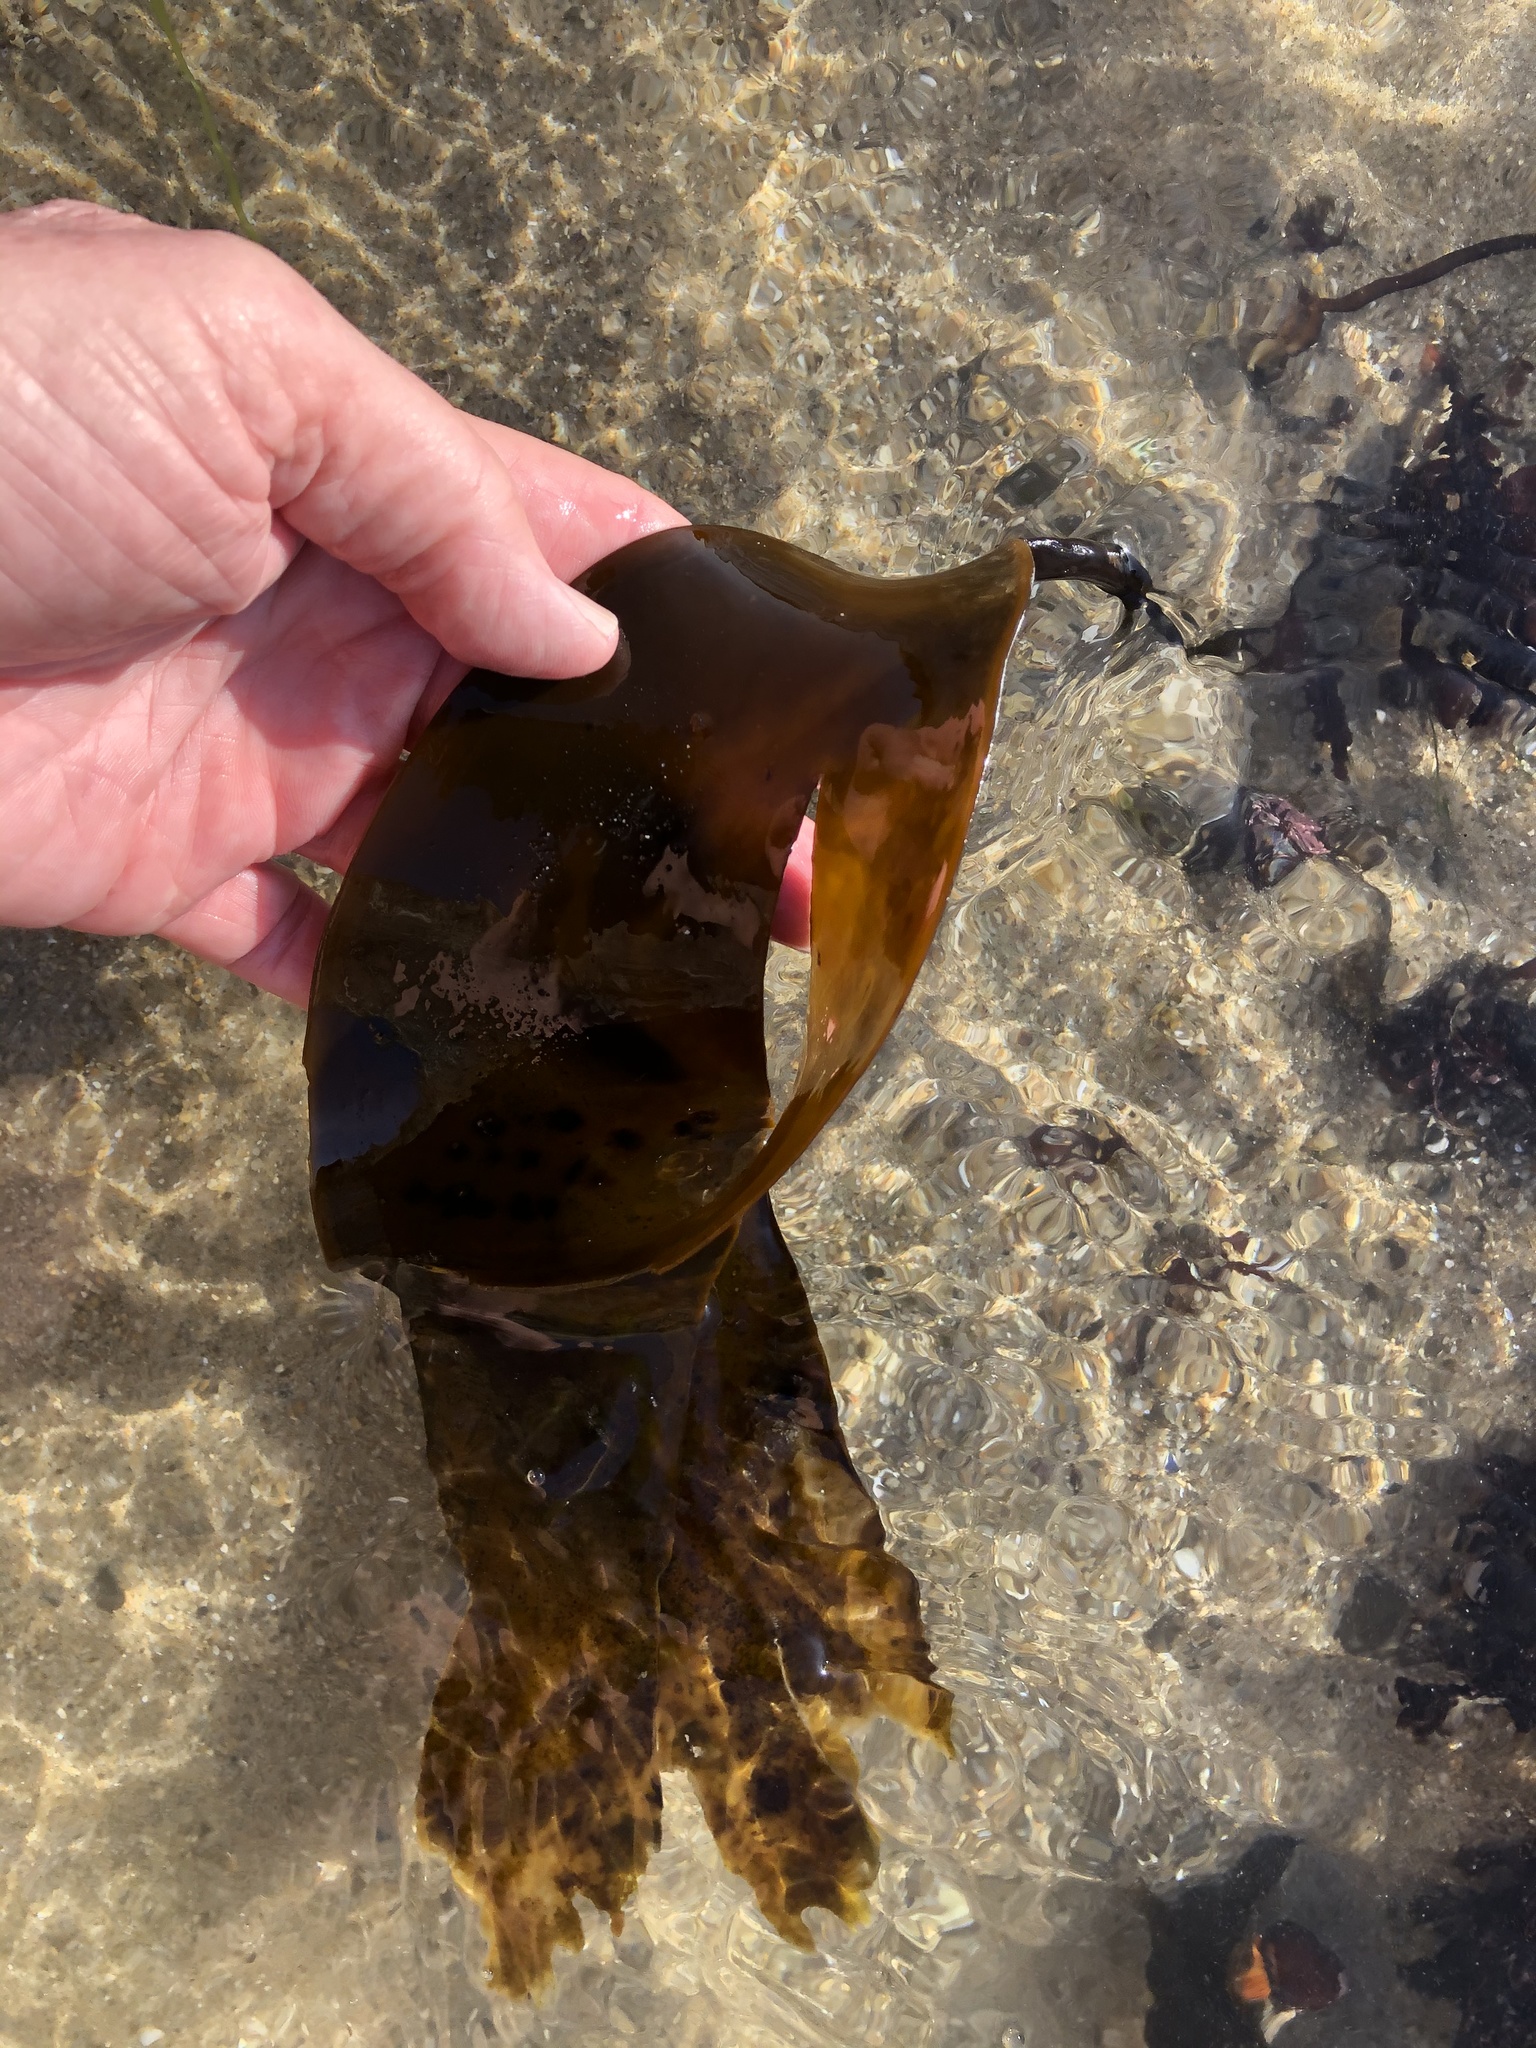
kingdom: Chromista
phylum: Ochrophyta
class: Phaeophyceae
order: Laminariales
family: Laminariaceae
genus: Laminaria
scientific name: Laminaria setchellii
